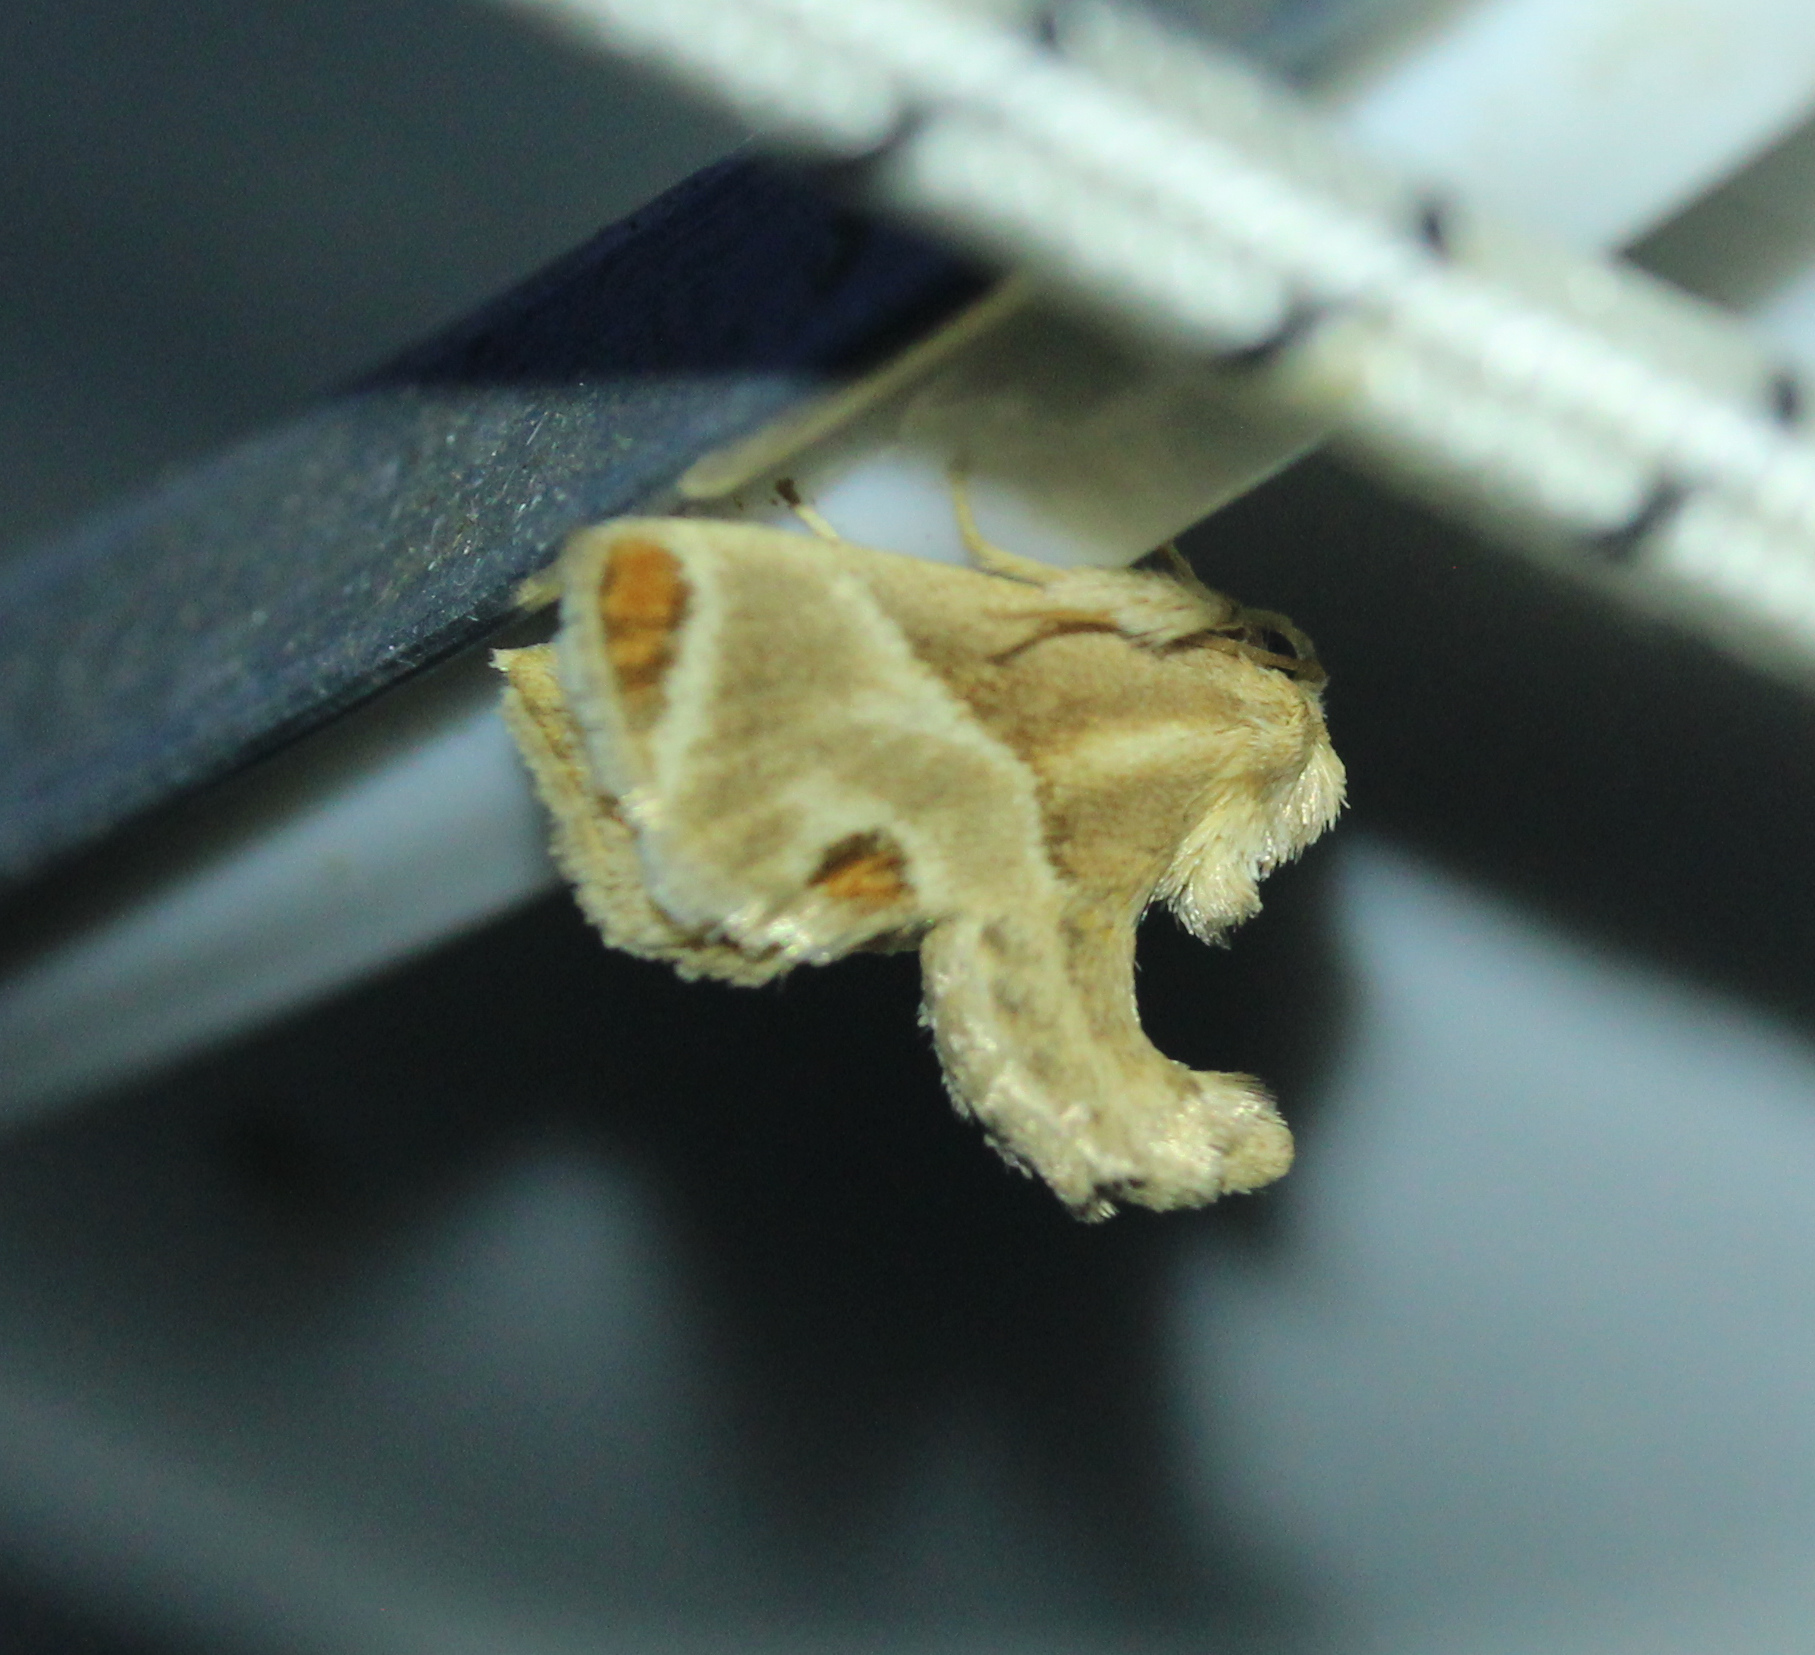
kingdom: Animalia
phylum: Arthropoda
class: Insecta
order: Lepidoptera
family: Limacodidae
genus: Apoda
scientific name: Apoda biguttata
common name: Shagreened slug moth
